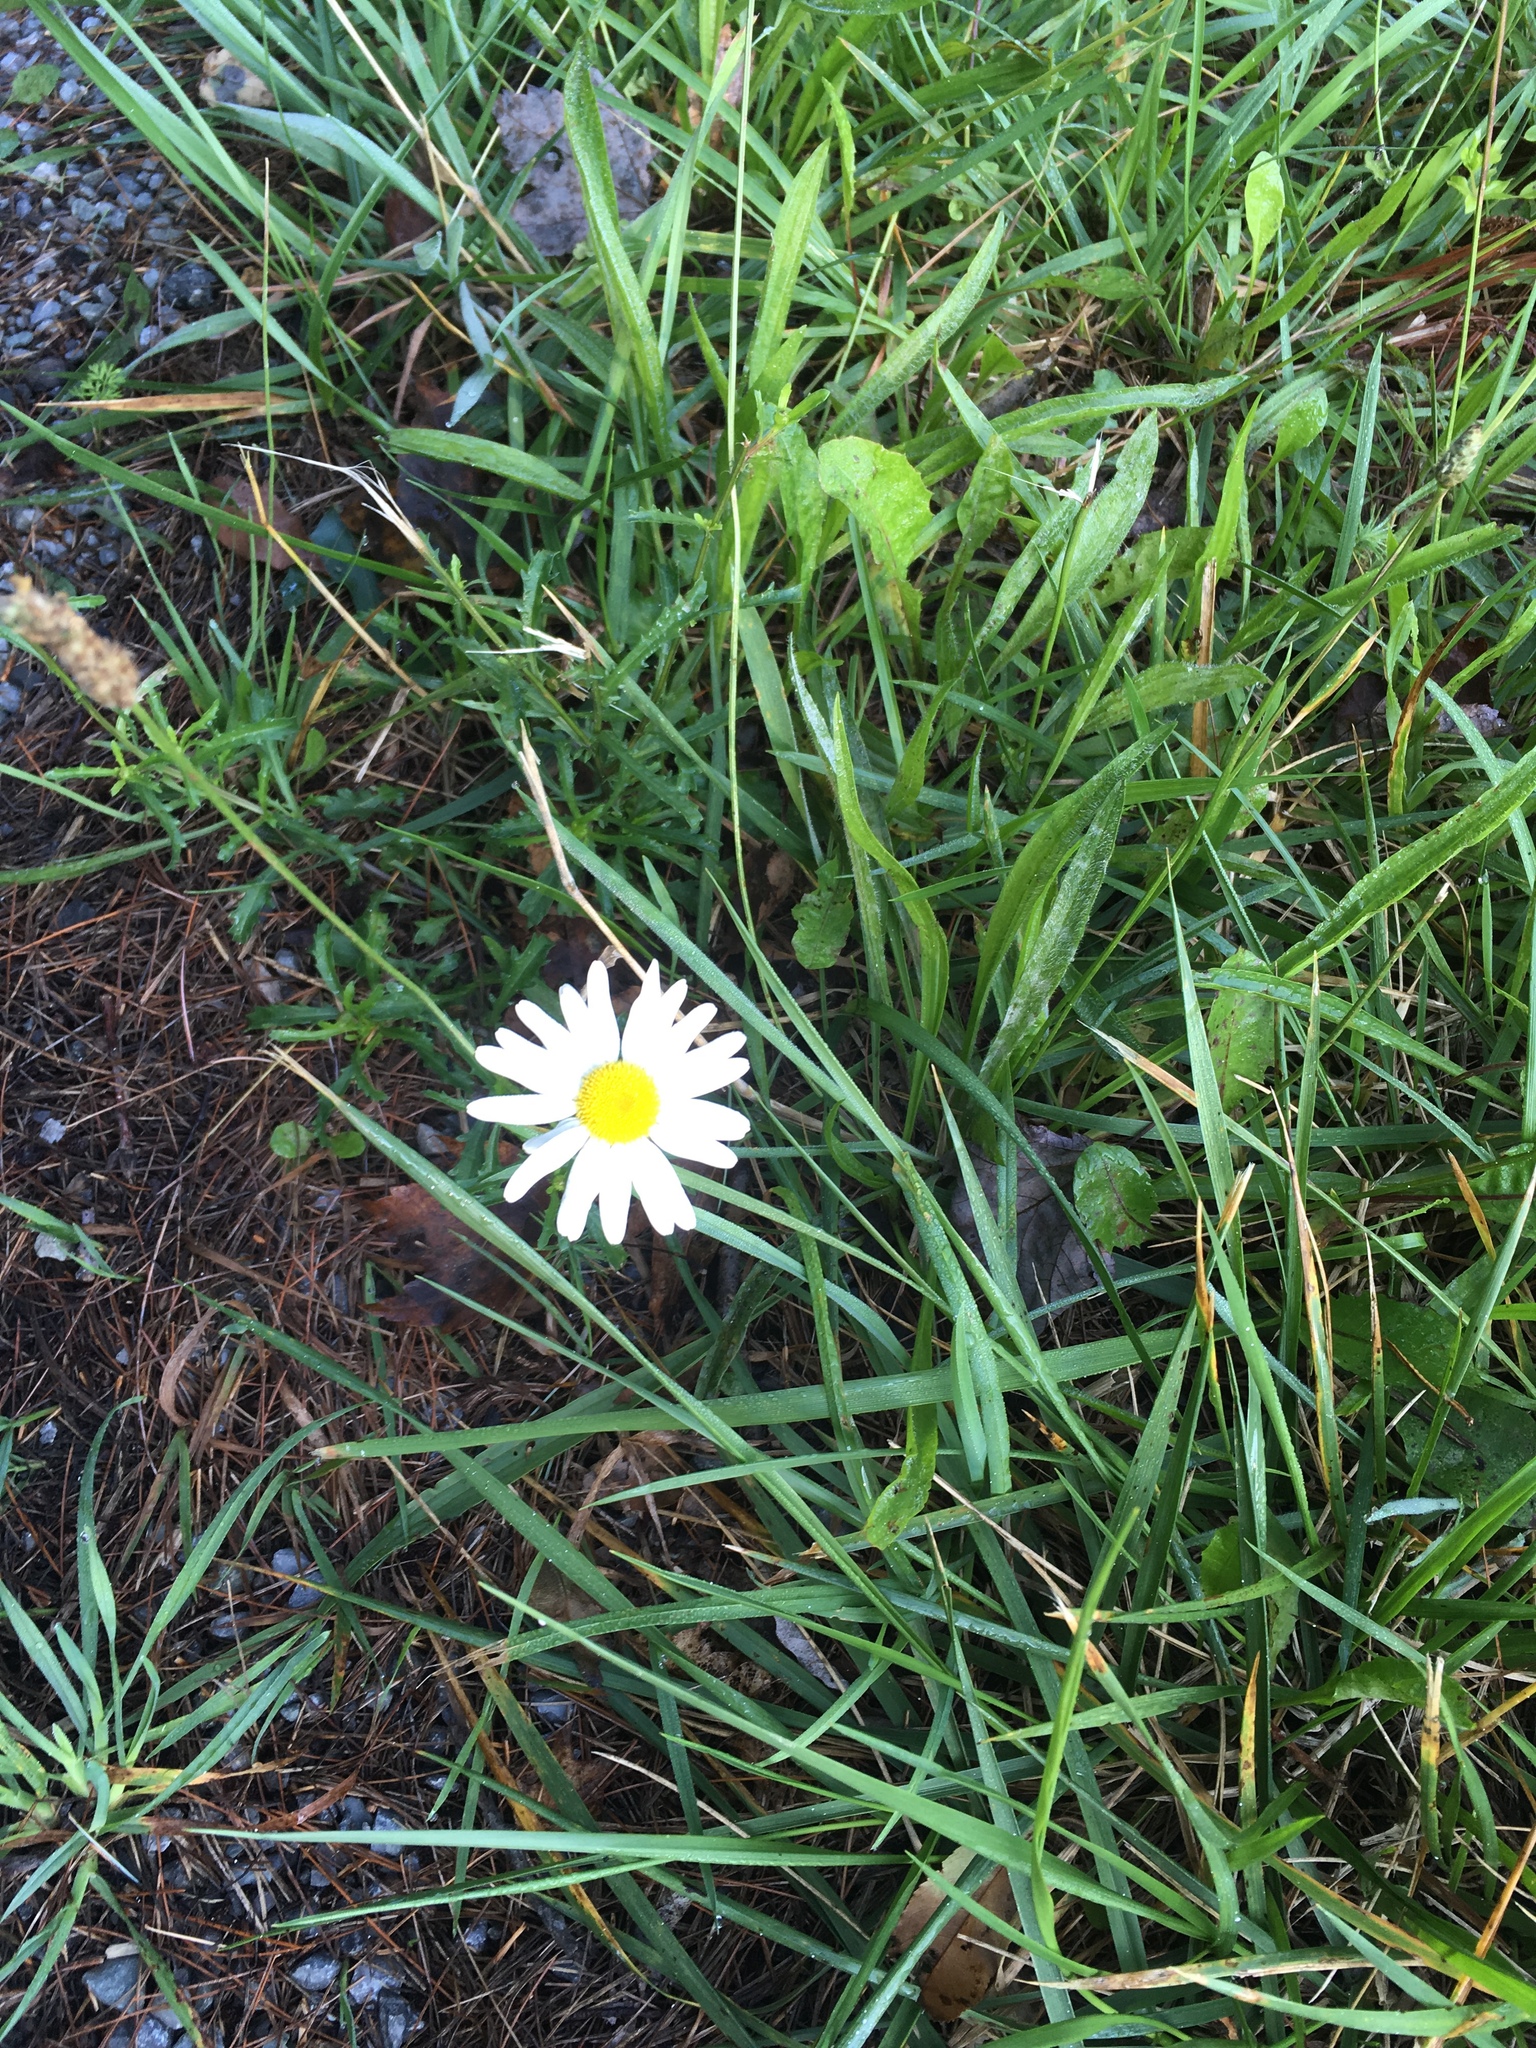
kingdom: Plantae
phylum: Tracheophyta
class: Magnoliopsida
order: Asterales
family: Asteraceae
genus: Leucanthemum
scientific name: Leucanthemum vulgare
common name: Oxeye daisy
